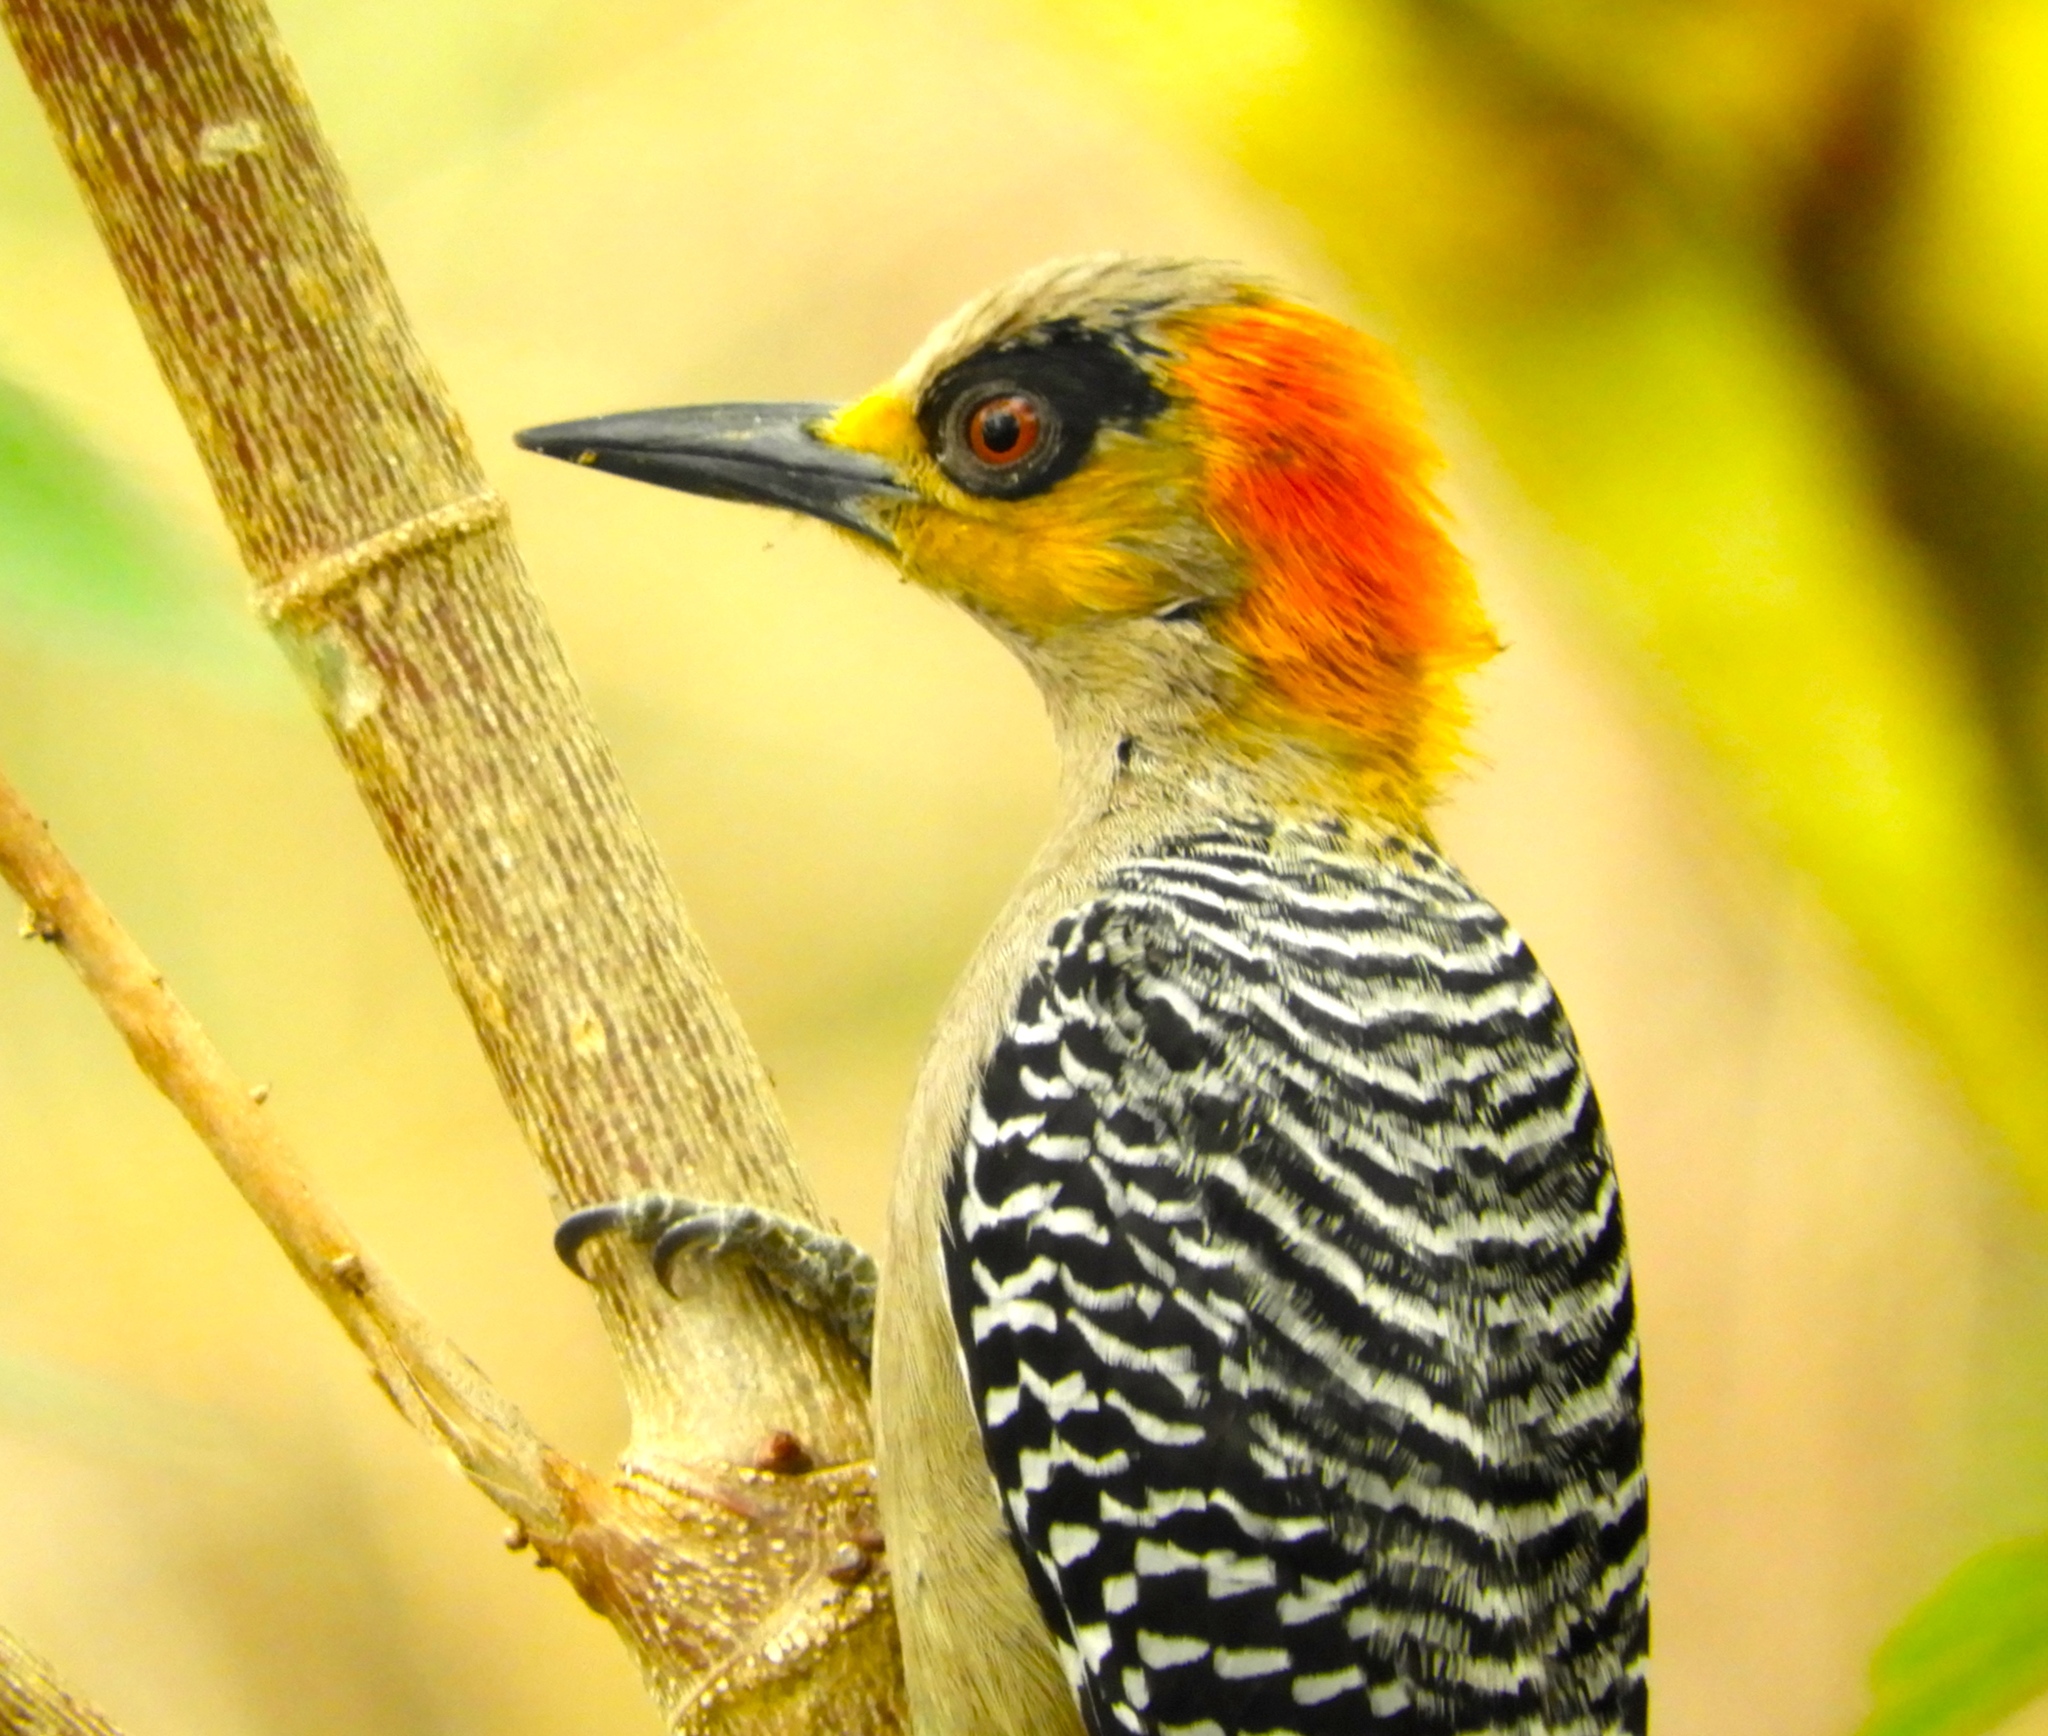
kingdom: Animalia
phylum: Chordata
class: Aves
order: Piciformes
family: Picidae
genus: Melanerpes
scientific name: Melanerpes chrysogenys
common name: Golden-cheeked woodpecker
